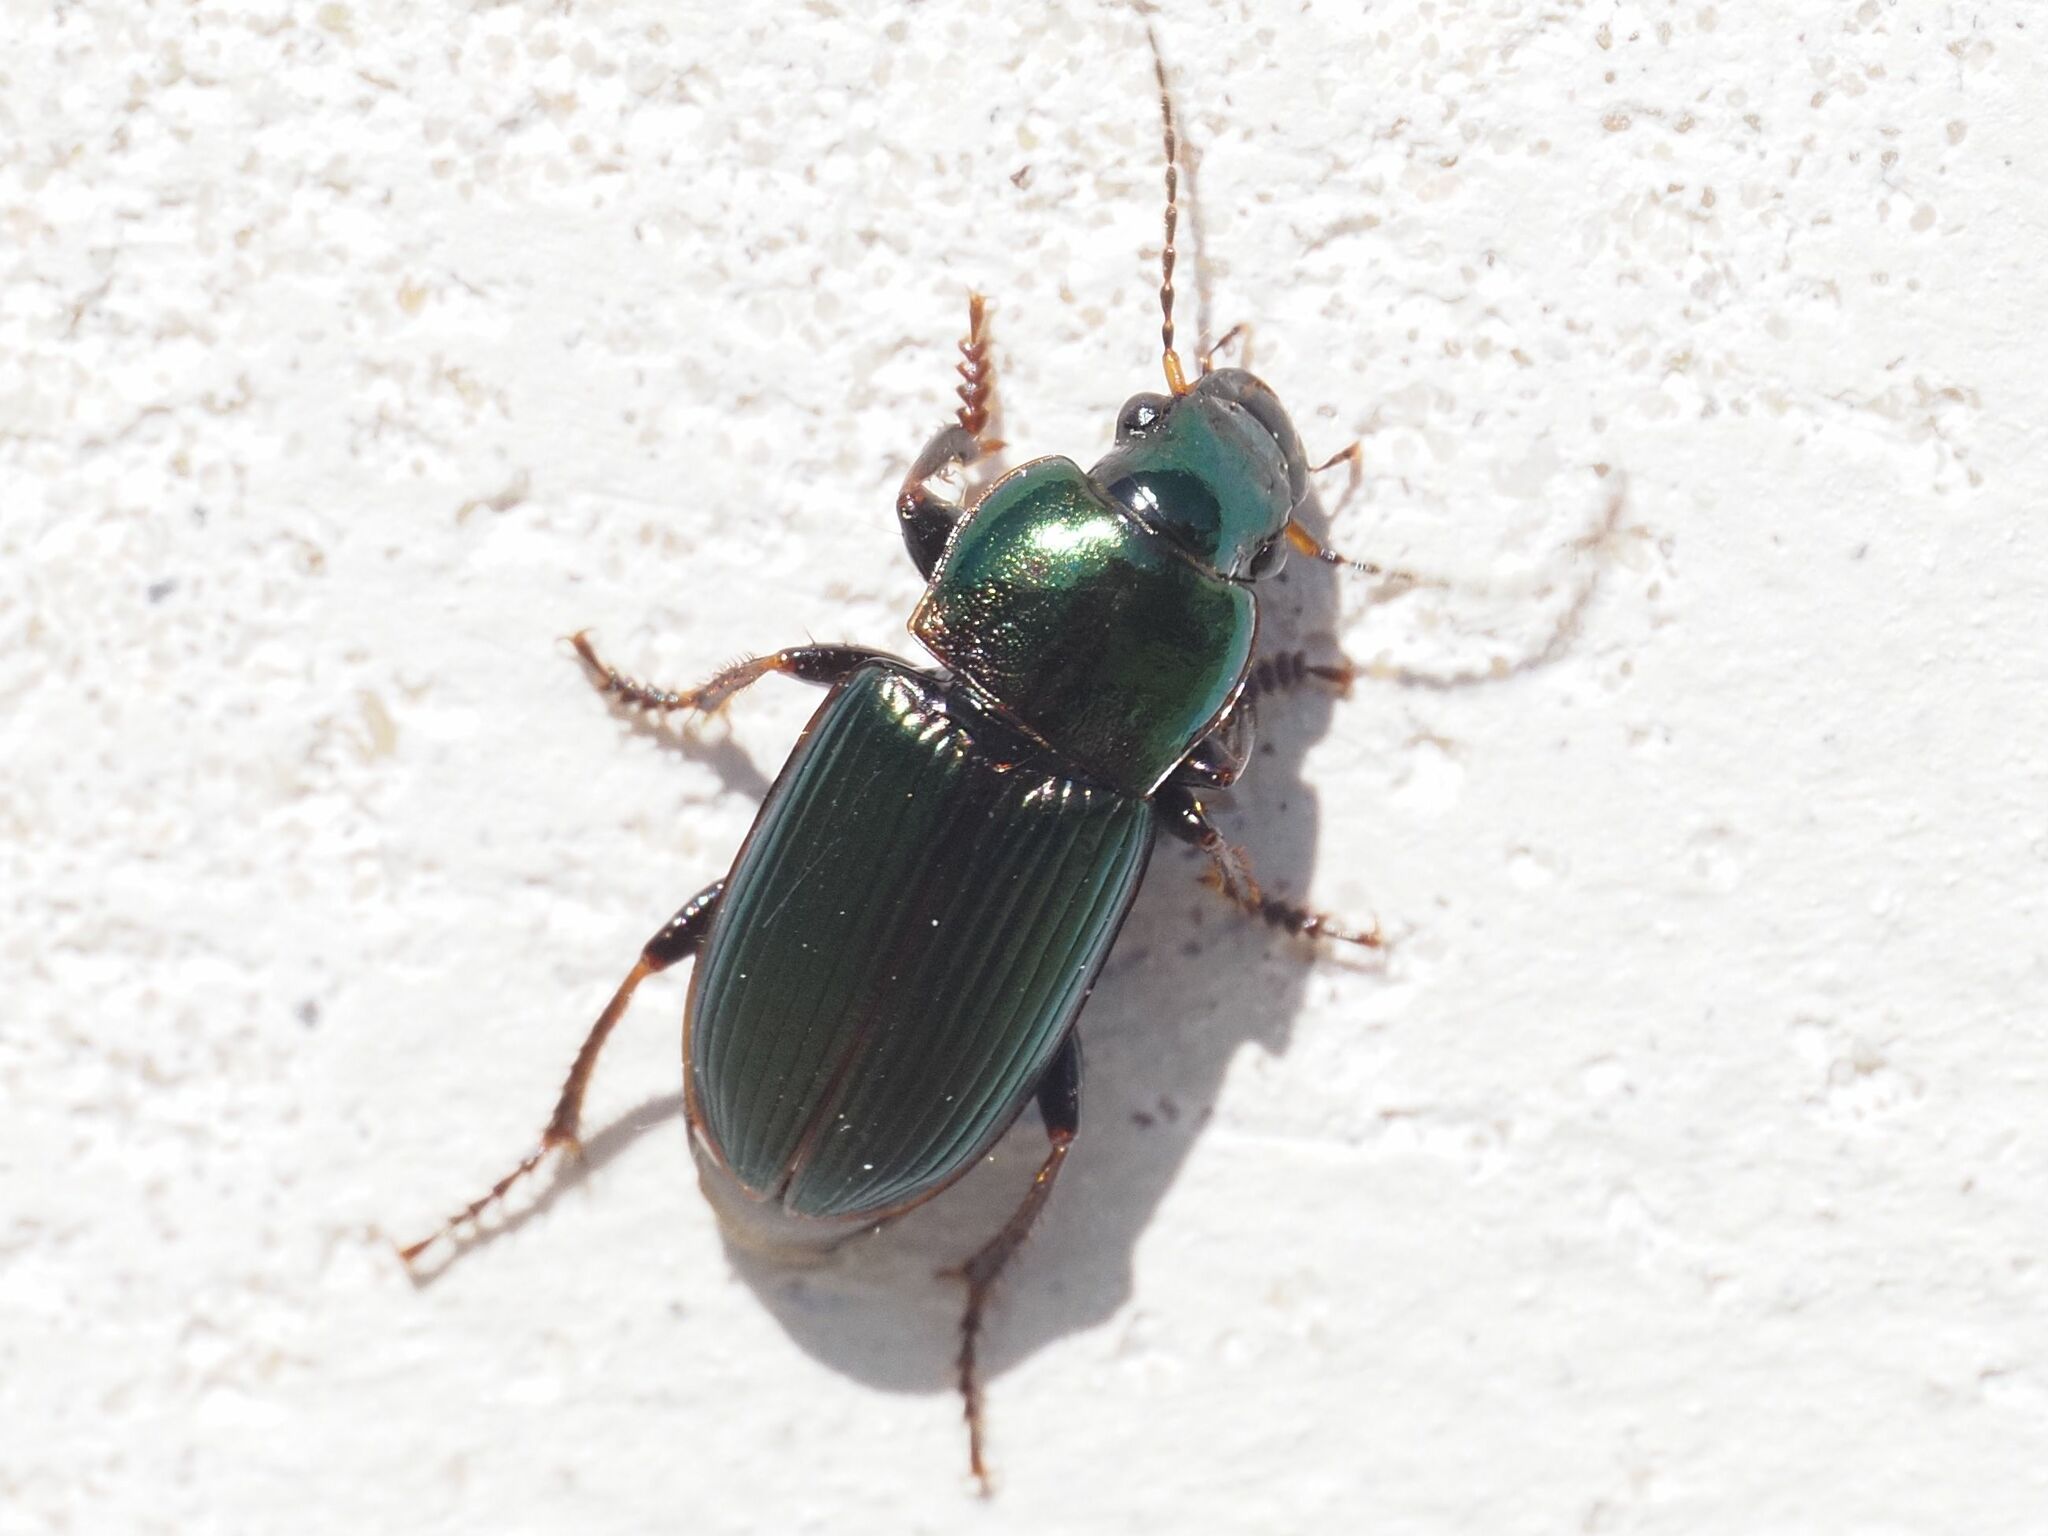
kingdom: Animalia
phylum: Arthropoda
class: Insecta
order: Coleoptera
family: Carabidae
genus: Harpalus
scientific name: Harpalus distinguendus
